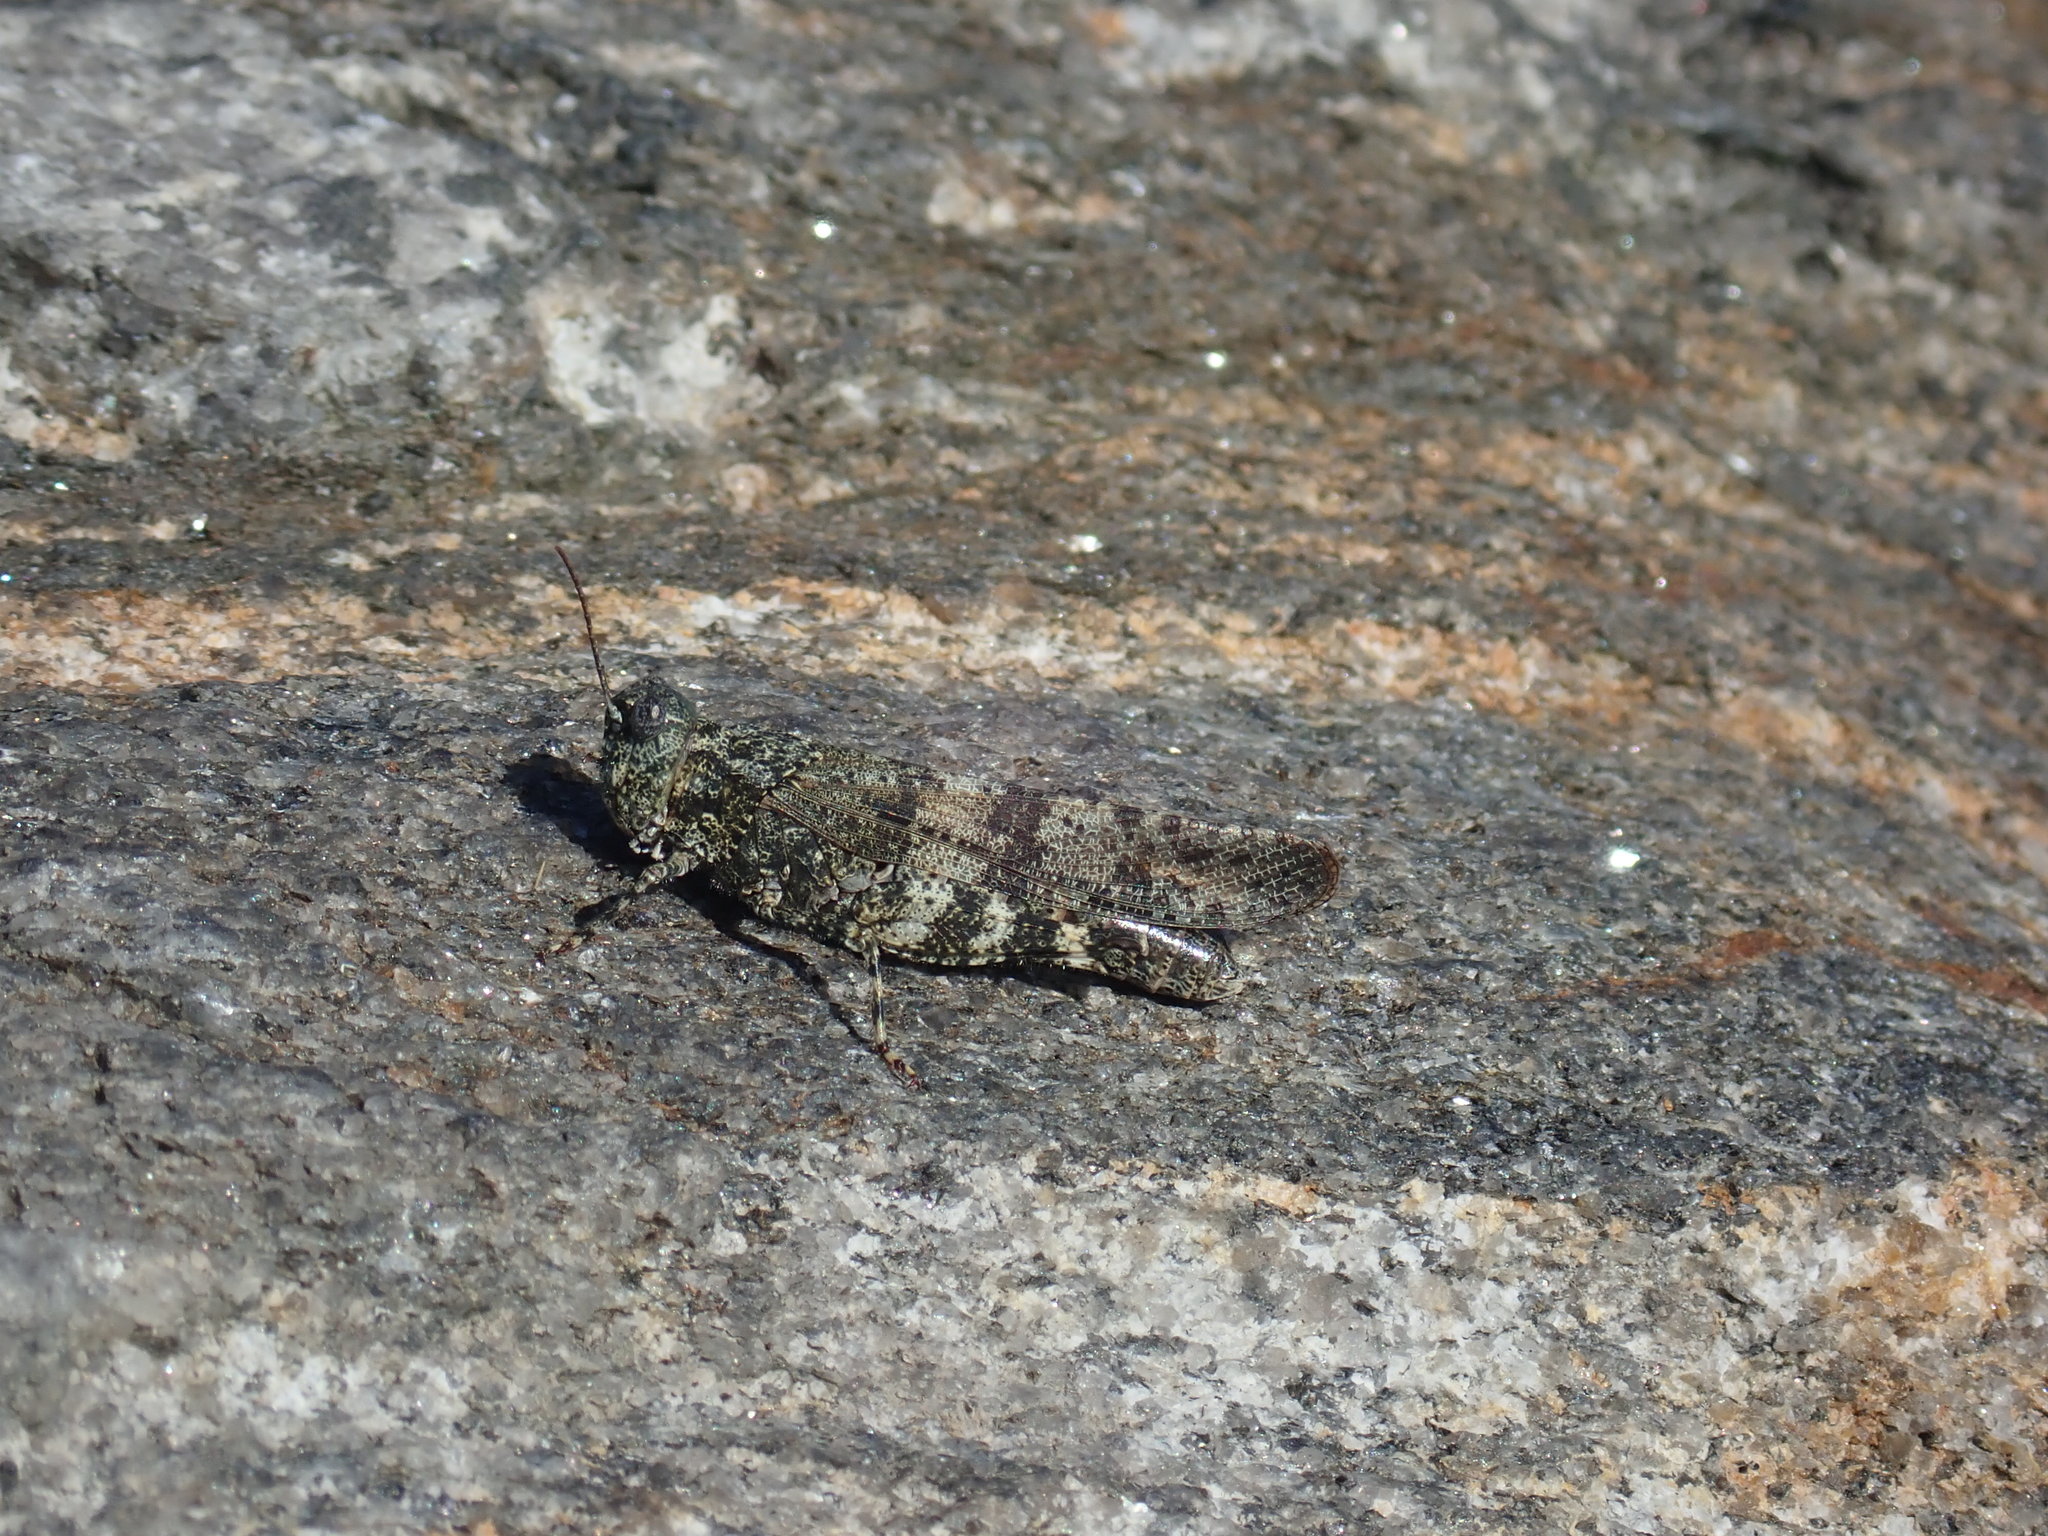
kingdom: Animalia
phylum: Arthropoda
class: Insecta
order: Orthoptera
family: Acrididae
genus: Trimerotropis
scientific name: Trimerotropis verruculata
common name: Crackling forest grasshopper
